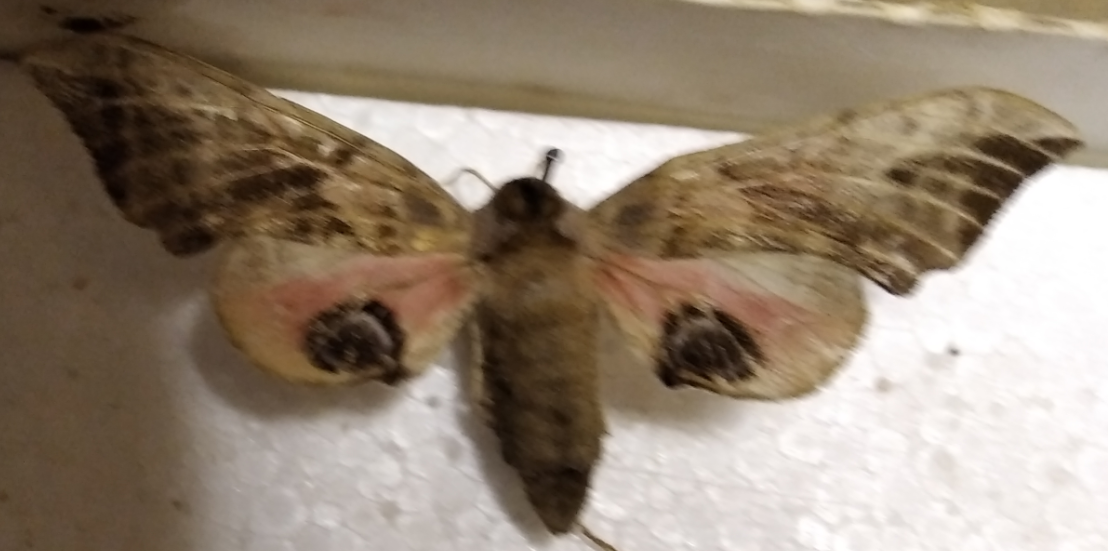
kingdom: Animalia
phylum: Arthropoda
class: Insecta
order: Lepidoptera
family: Sphingidae
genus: Smerinthus
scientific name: Smerinthus ocellata
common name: Eyed hawk-moth
